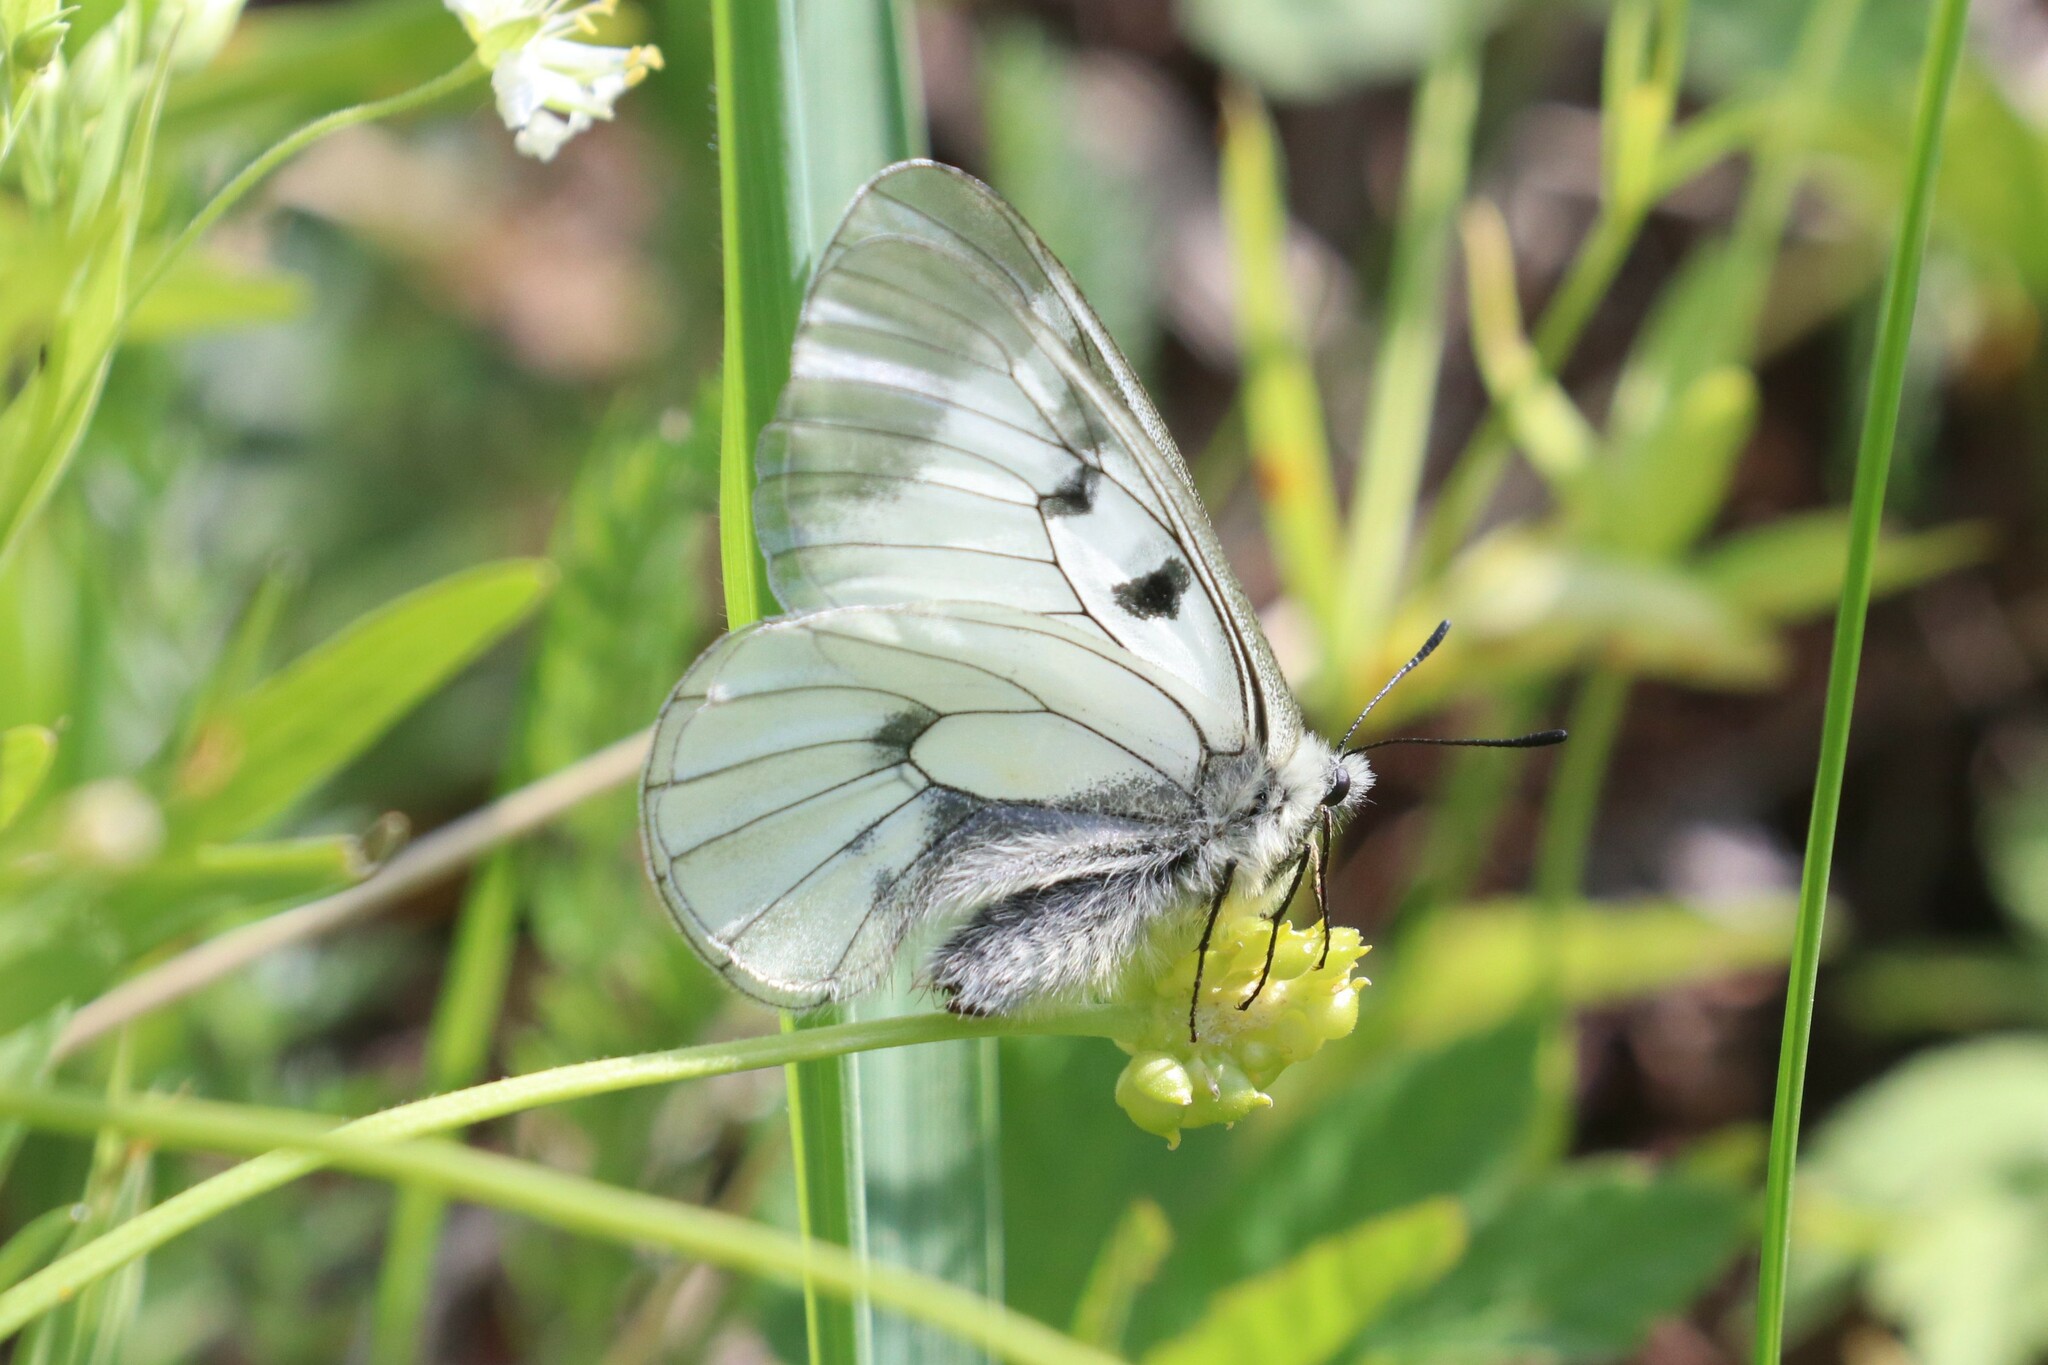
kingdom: Animalia
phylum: Arthropoda
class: Insecta
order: Lepidoptera
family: Papilionidae
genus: Parnassius
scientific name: Parnassius mnemosyne
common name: Clouded apollo
